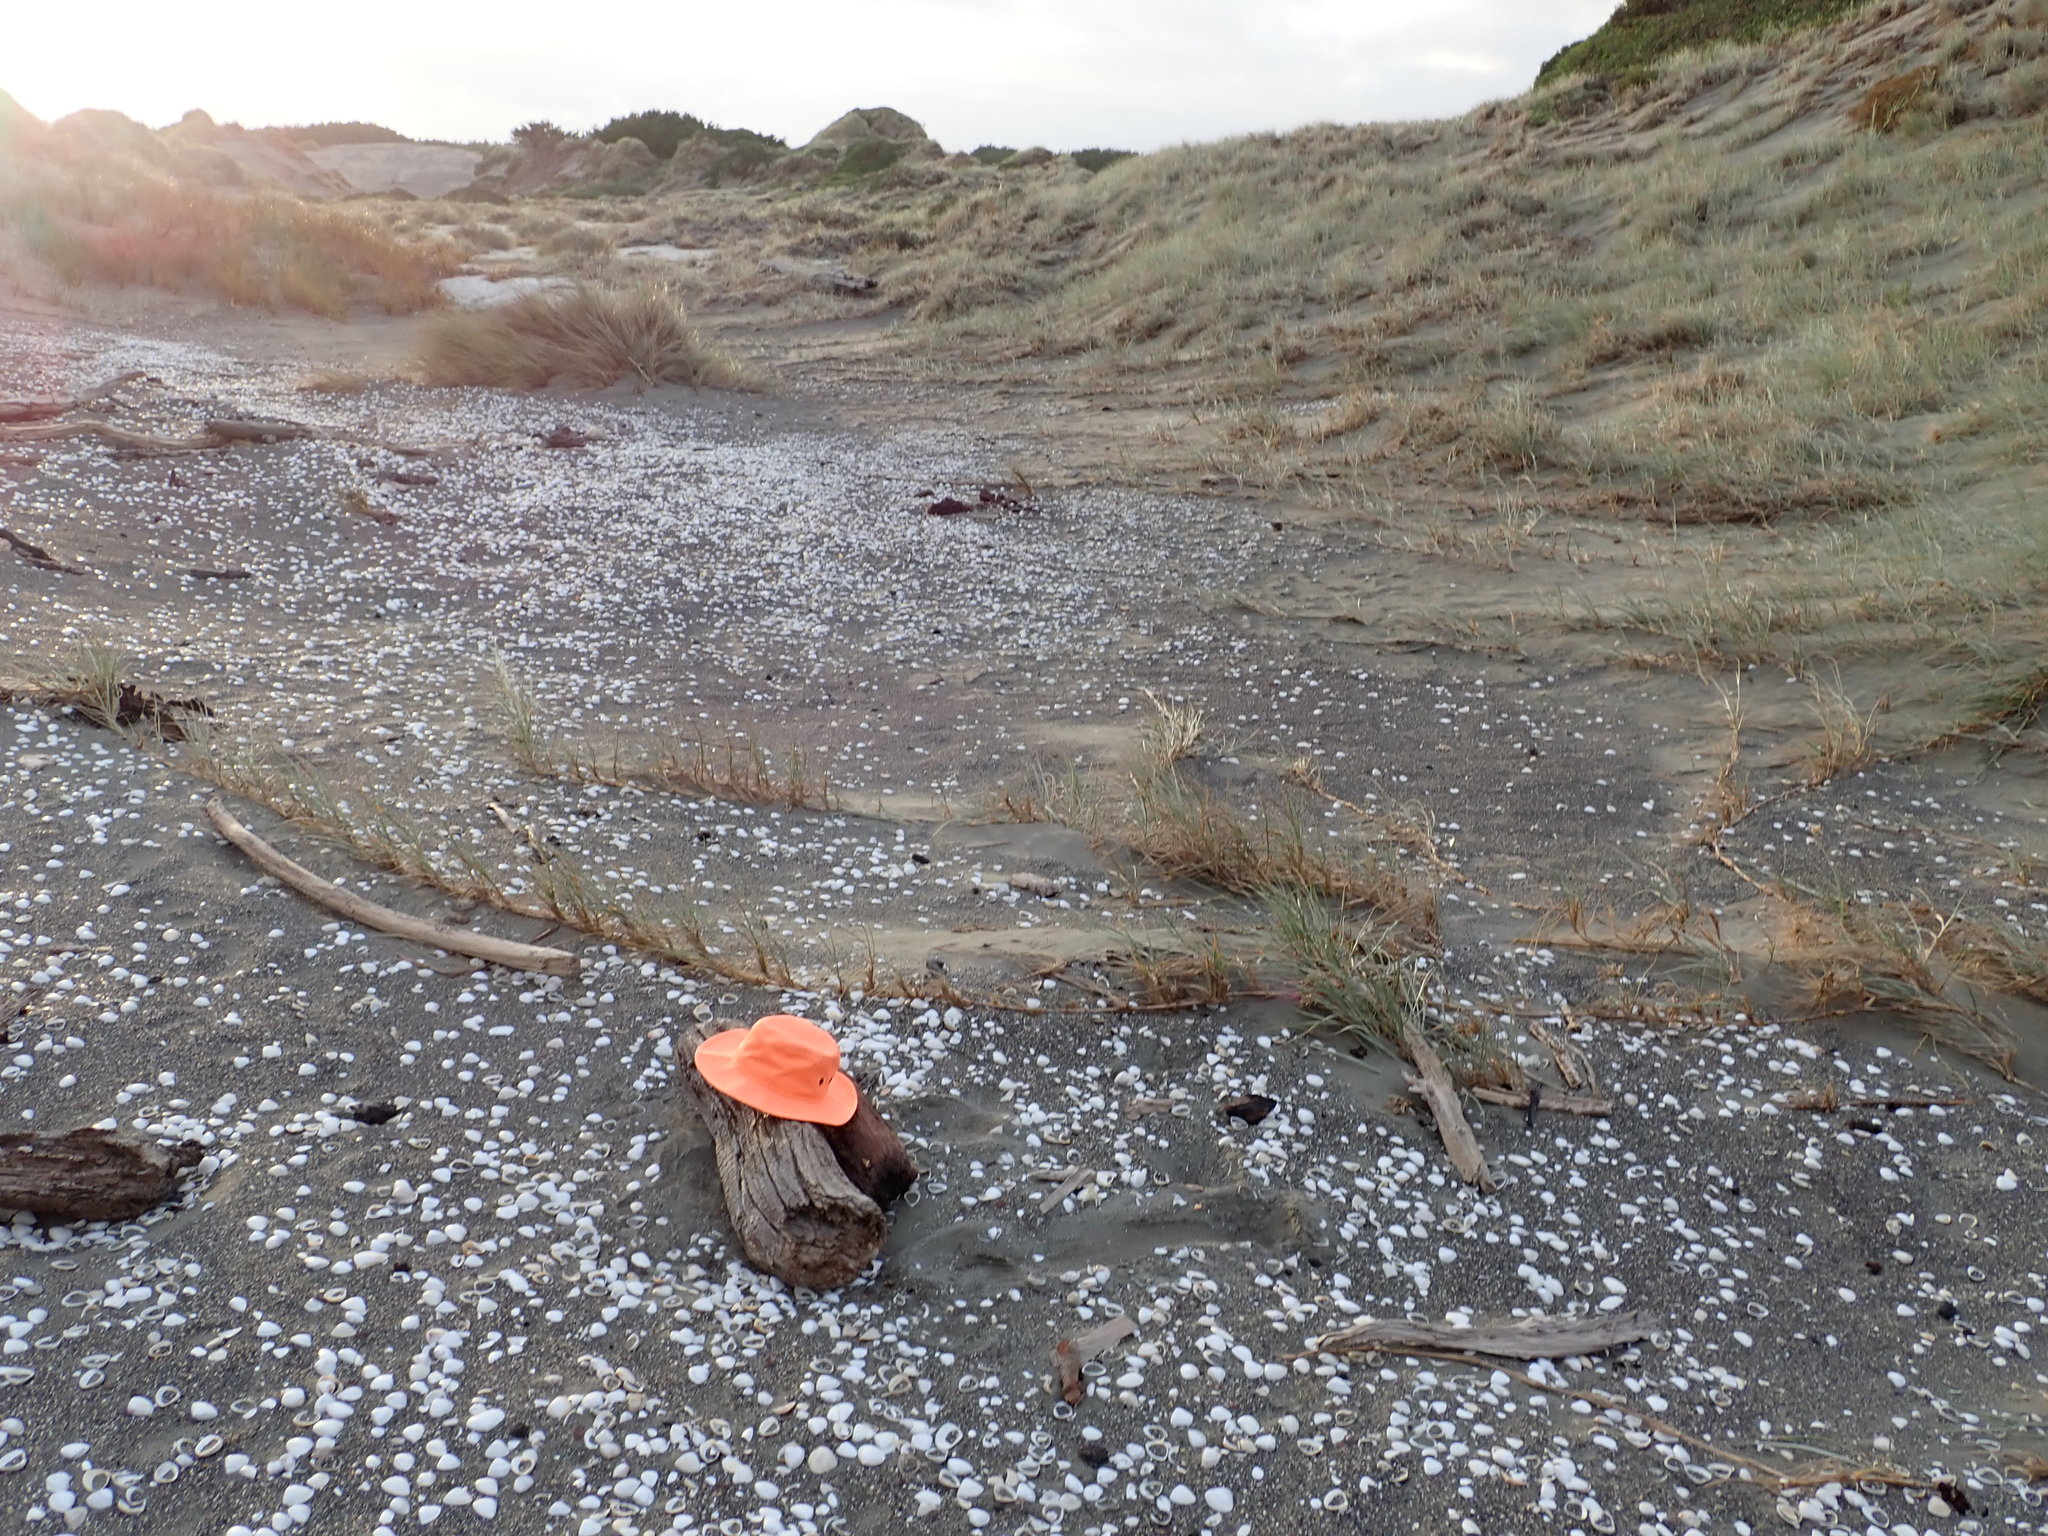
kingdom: Animalia
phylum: Arthropoda
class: Arachnida
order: Araneae
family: Theridiidae
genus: Steatoda
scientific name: Steatoda capensis
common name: Cobweb weaver
